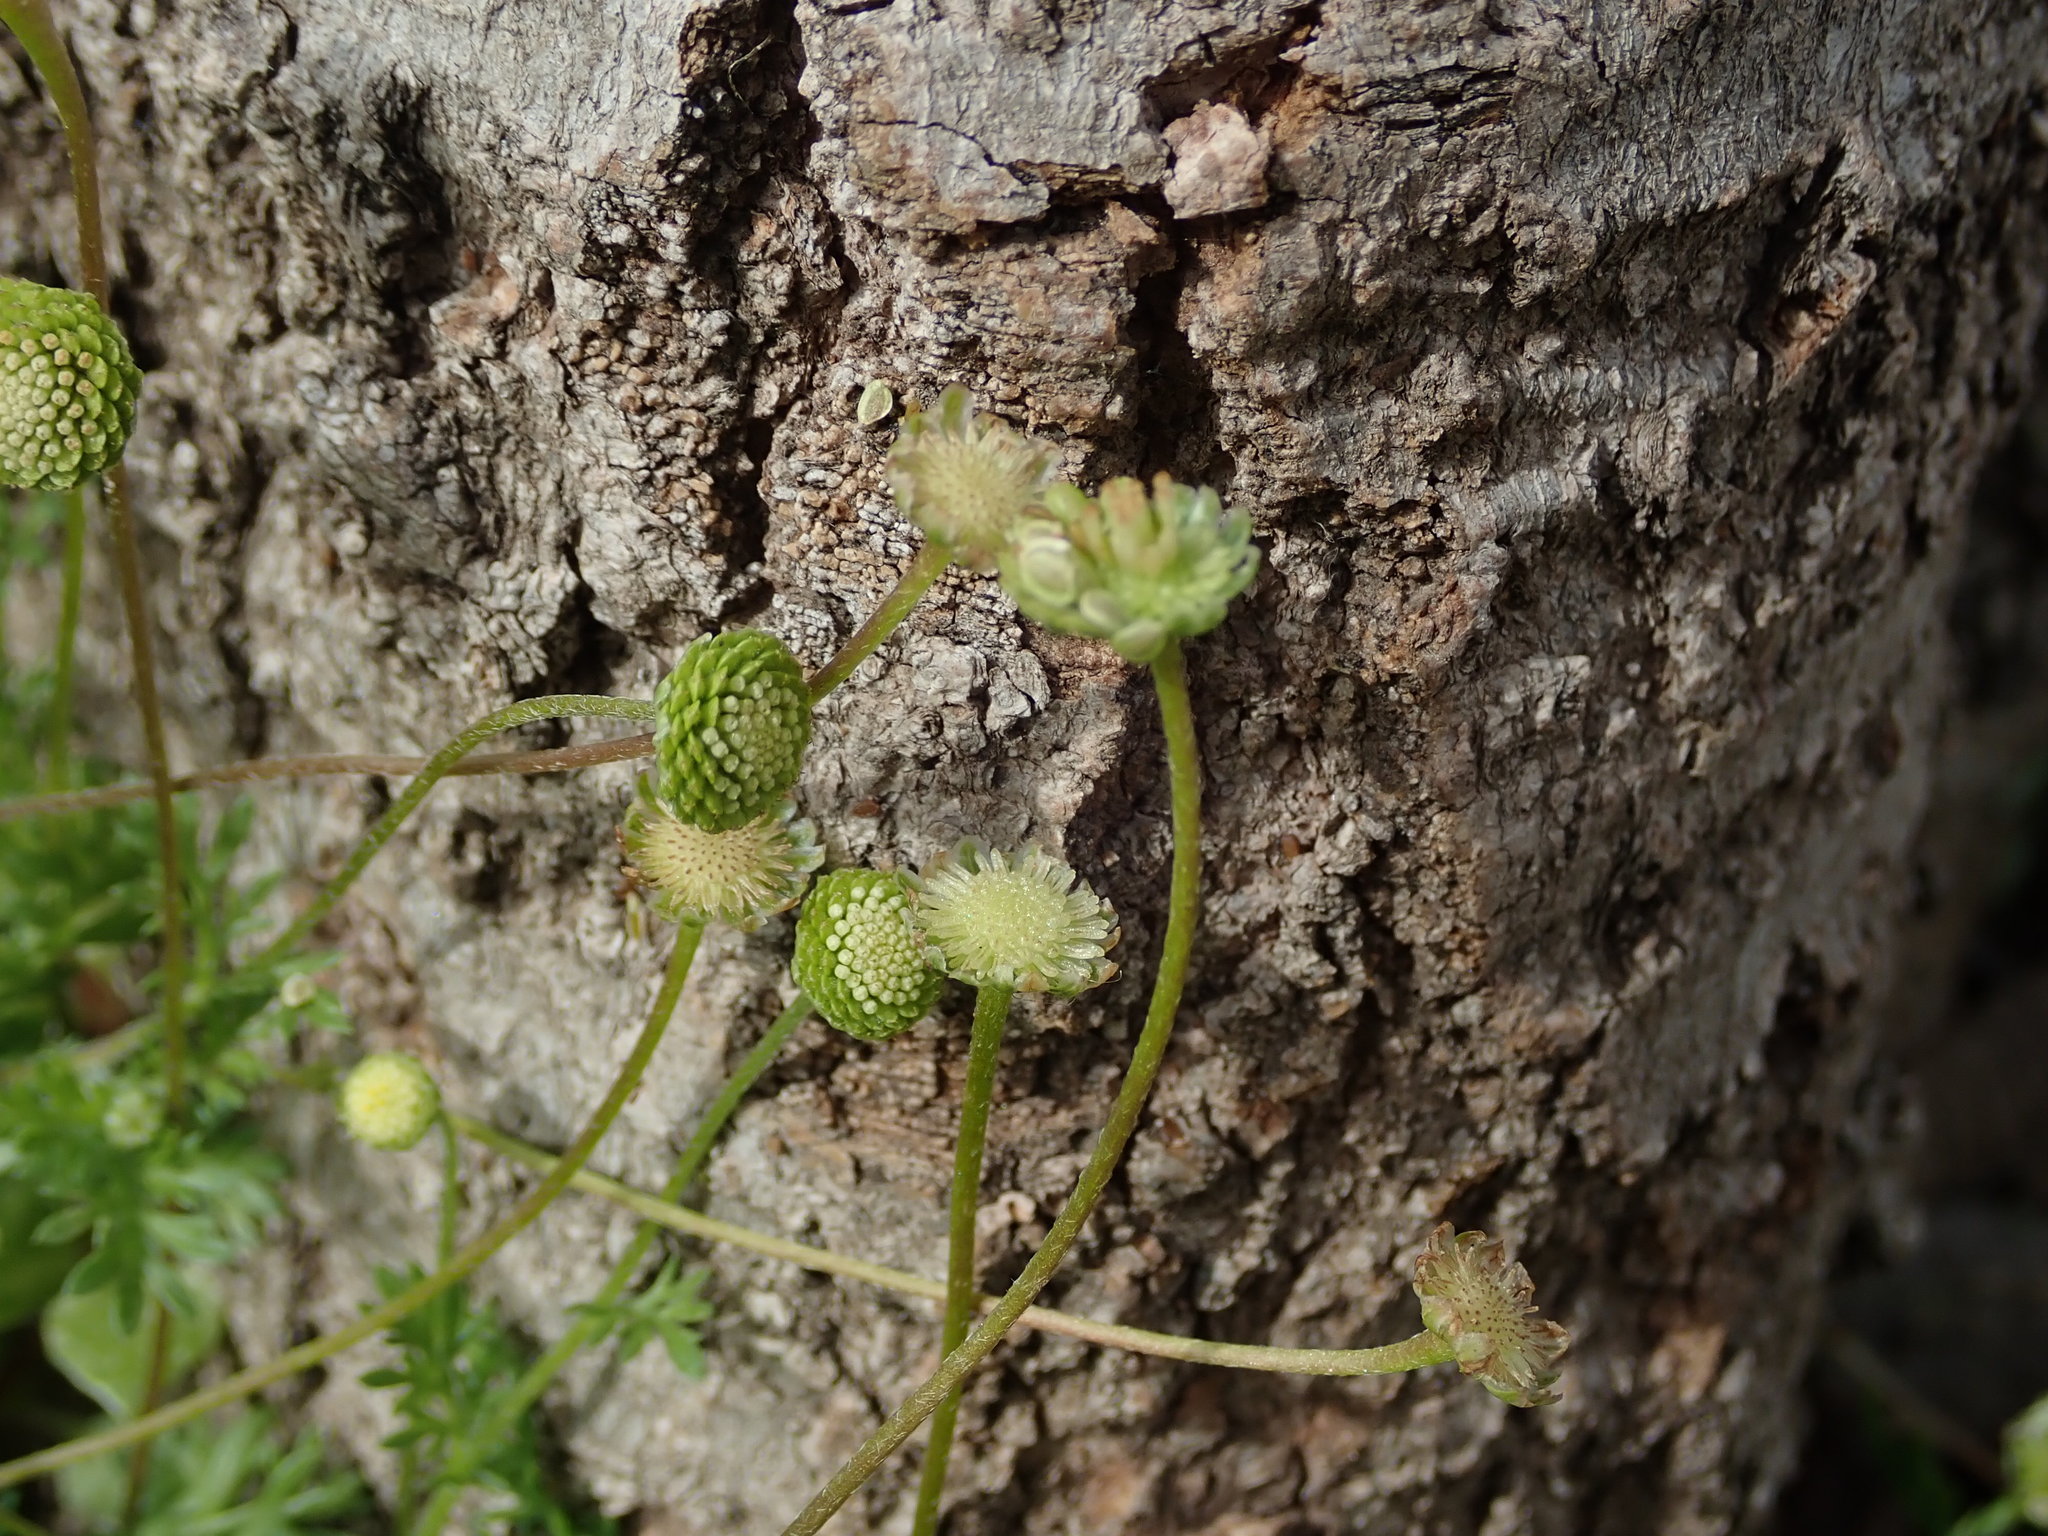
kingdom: Plantae
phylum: Tracheophyta
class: Magnoliopsida
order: Asterales
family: Asteraceae
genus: Cotula
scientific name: Cotula australis
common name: Australian waterbuttons
